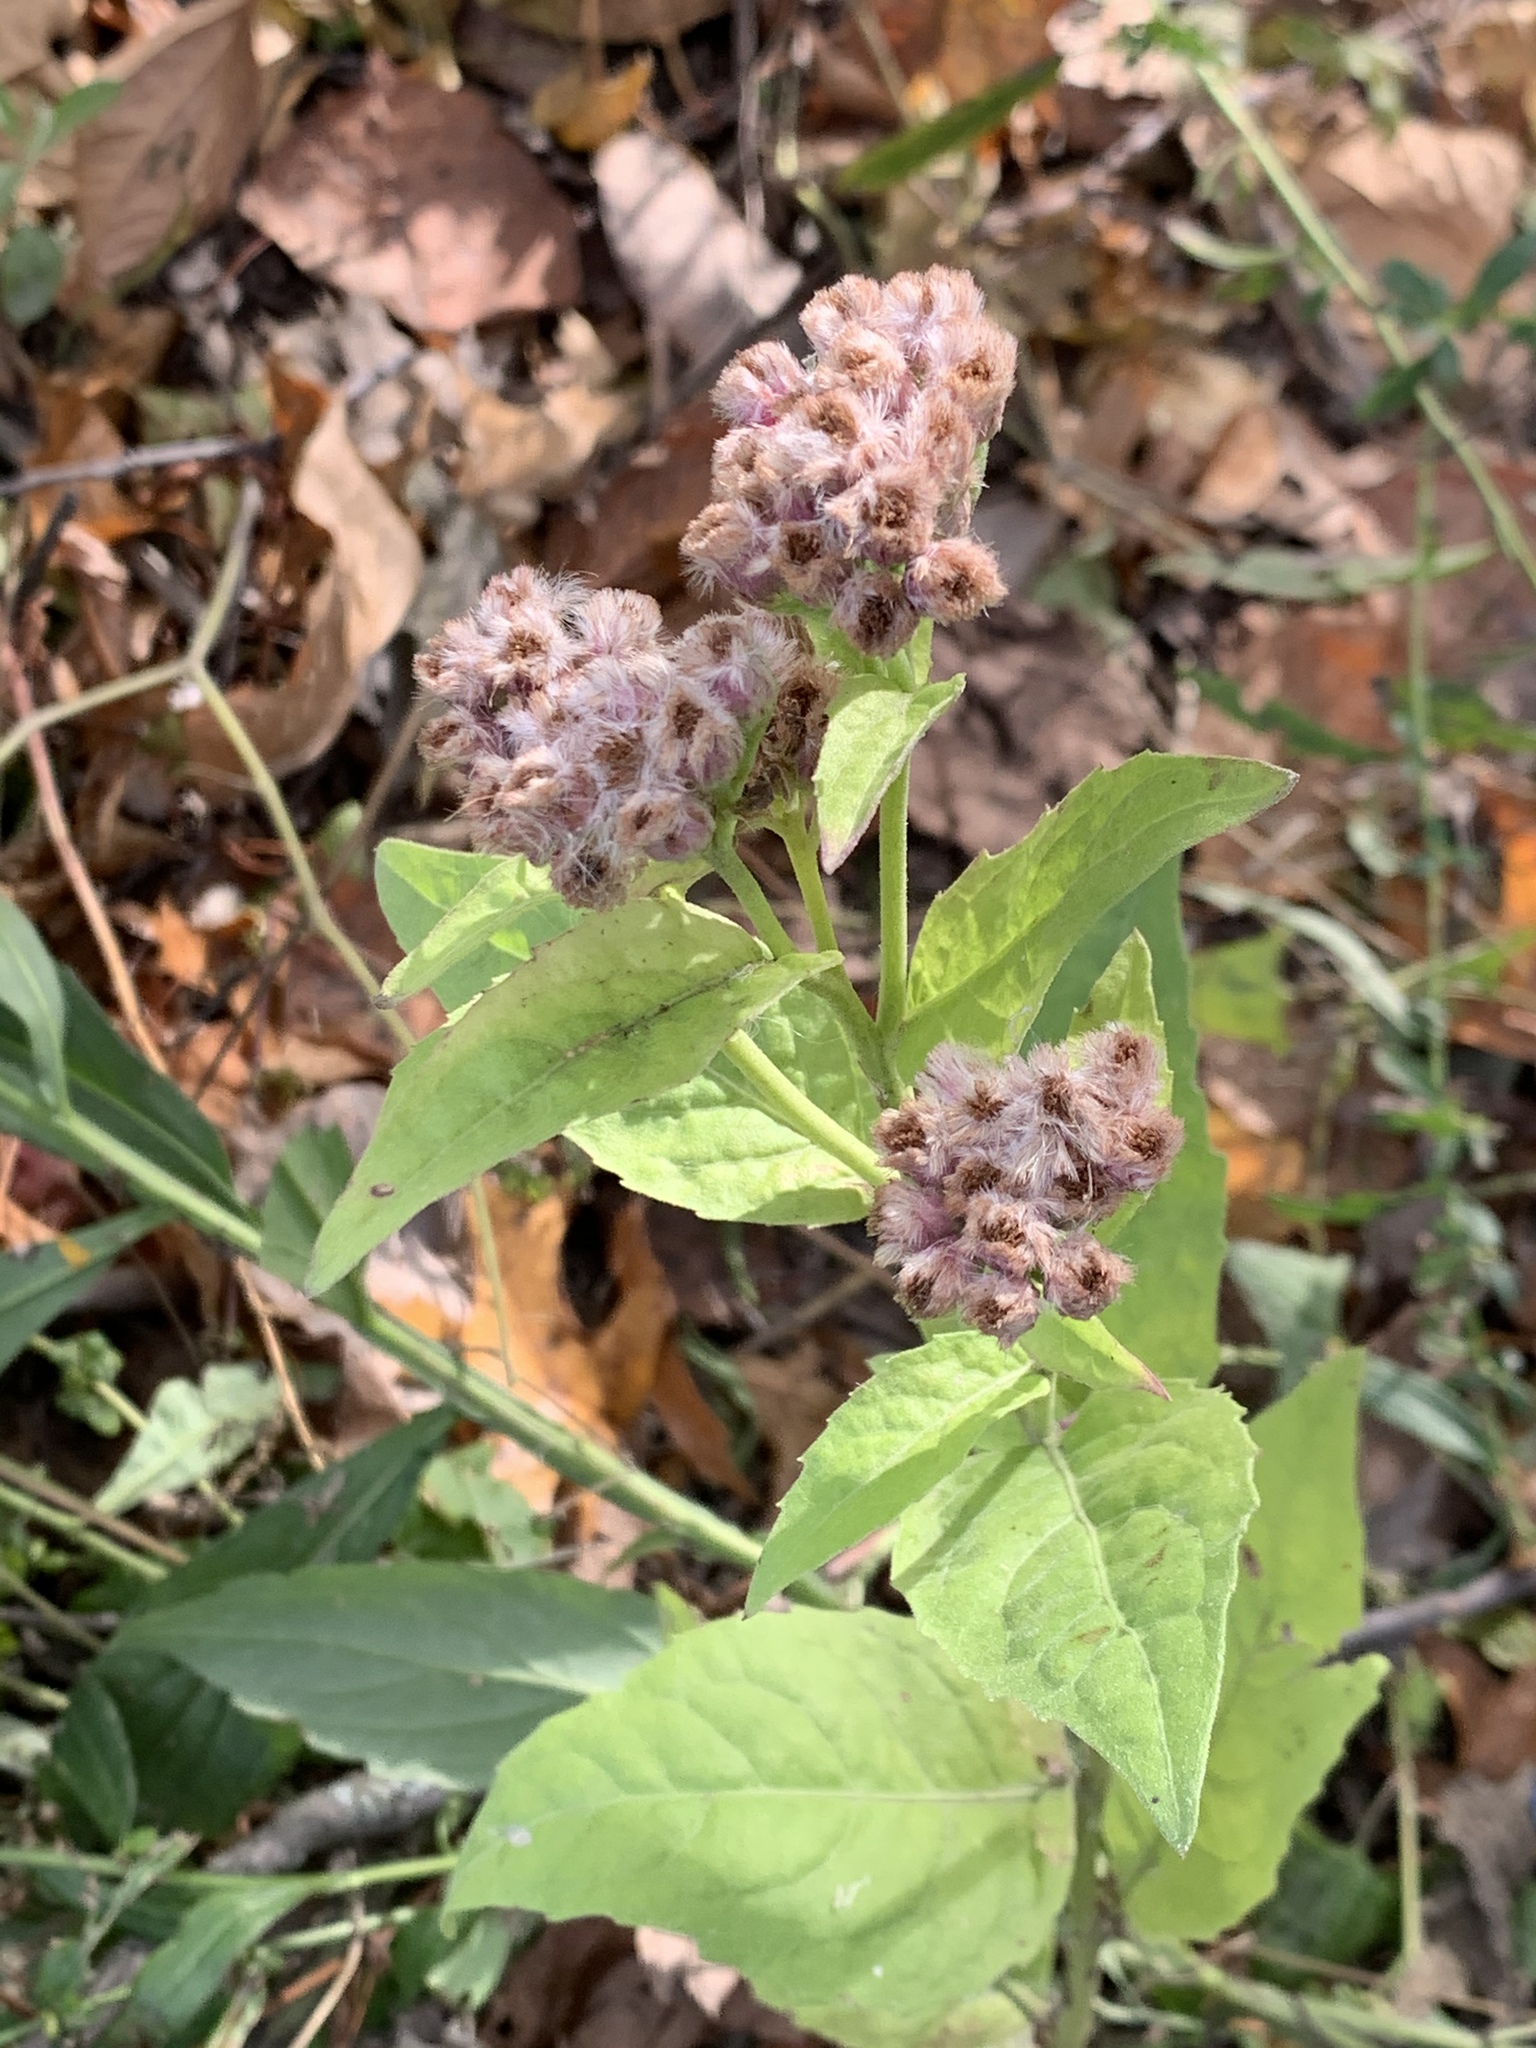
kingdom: Plantae
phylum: Tracheophyta
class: Magnoliopsida
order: Asterales
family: Asteraceae
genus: Pluchea
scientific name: Pluchea odorata
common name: Saltmarsh fleabane
